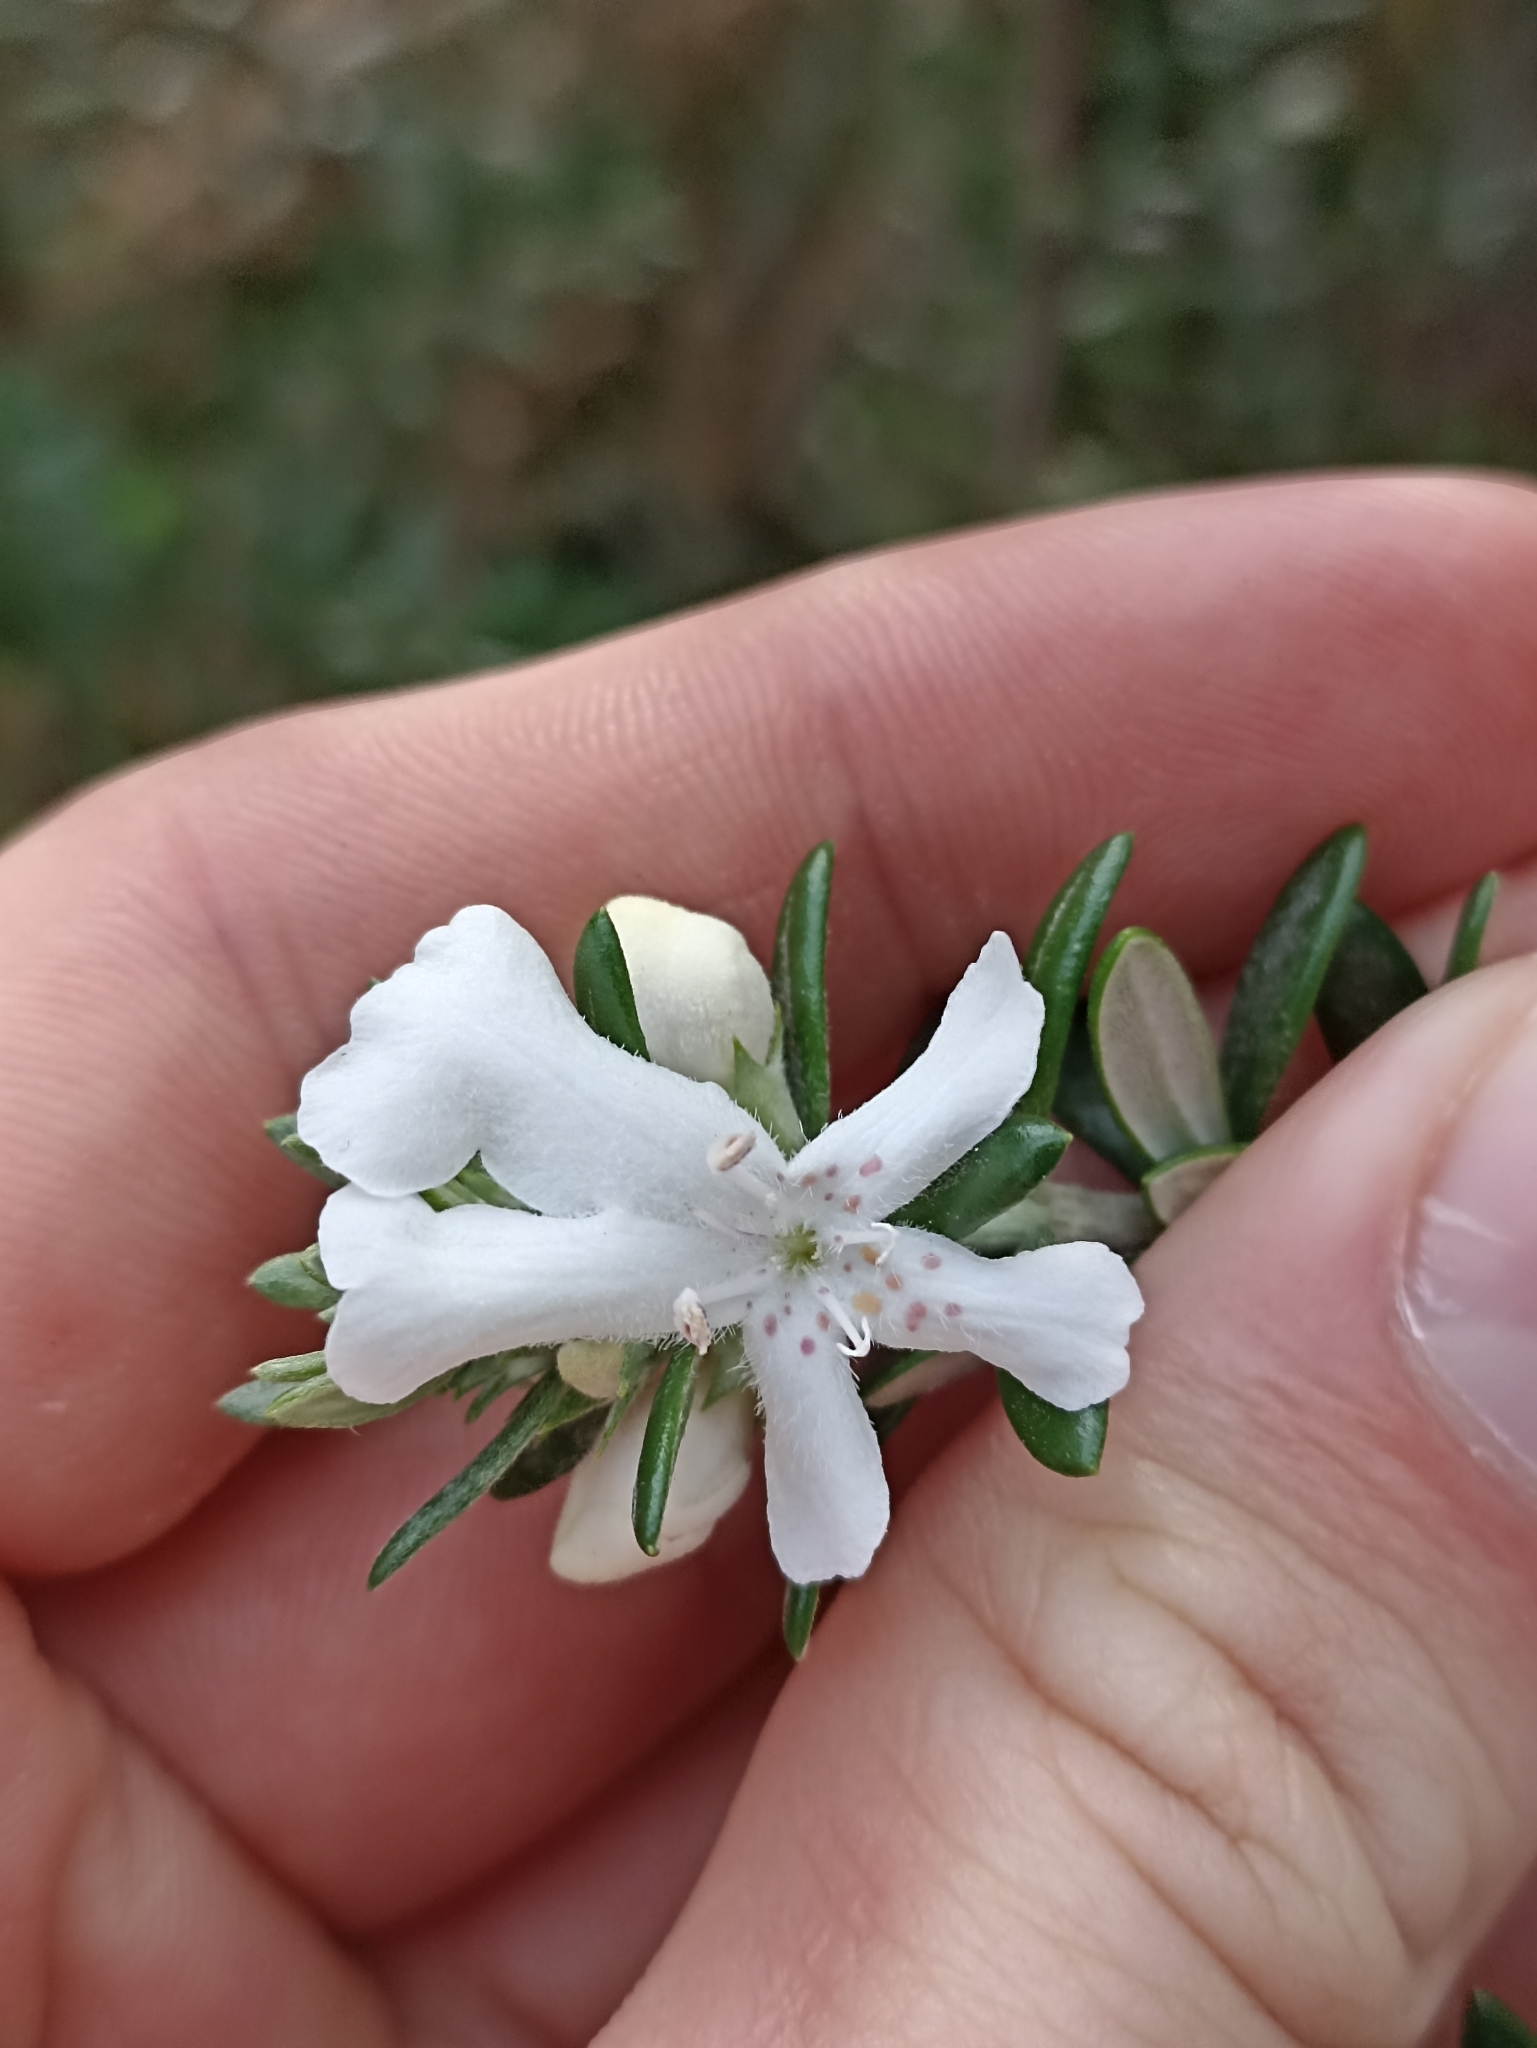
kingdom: Plantae
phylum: Tracheophyta
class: Magnoliopsida
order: Lamiales
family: Lamiaceae
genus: Westringia
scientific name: Westringia fruticosa
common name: Coastal-rosemary
